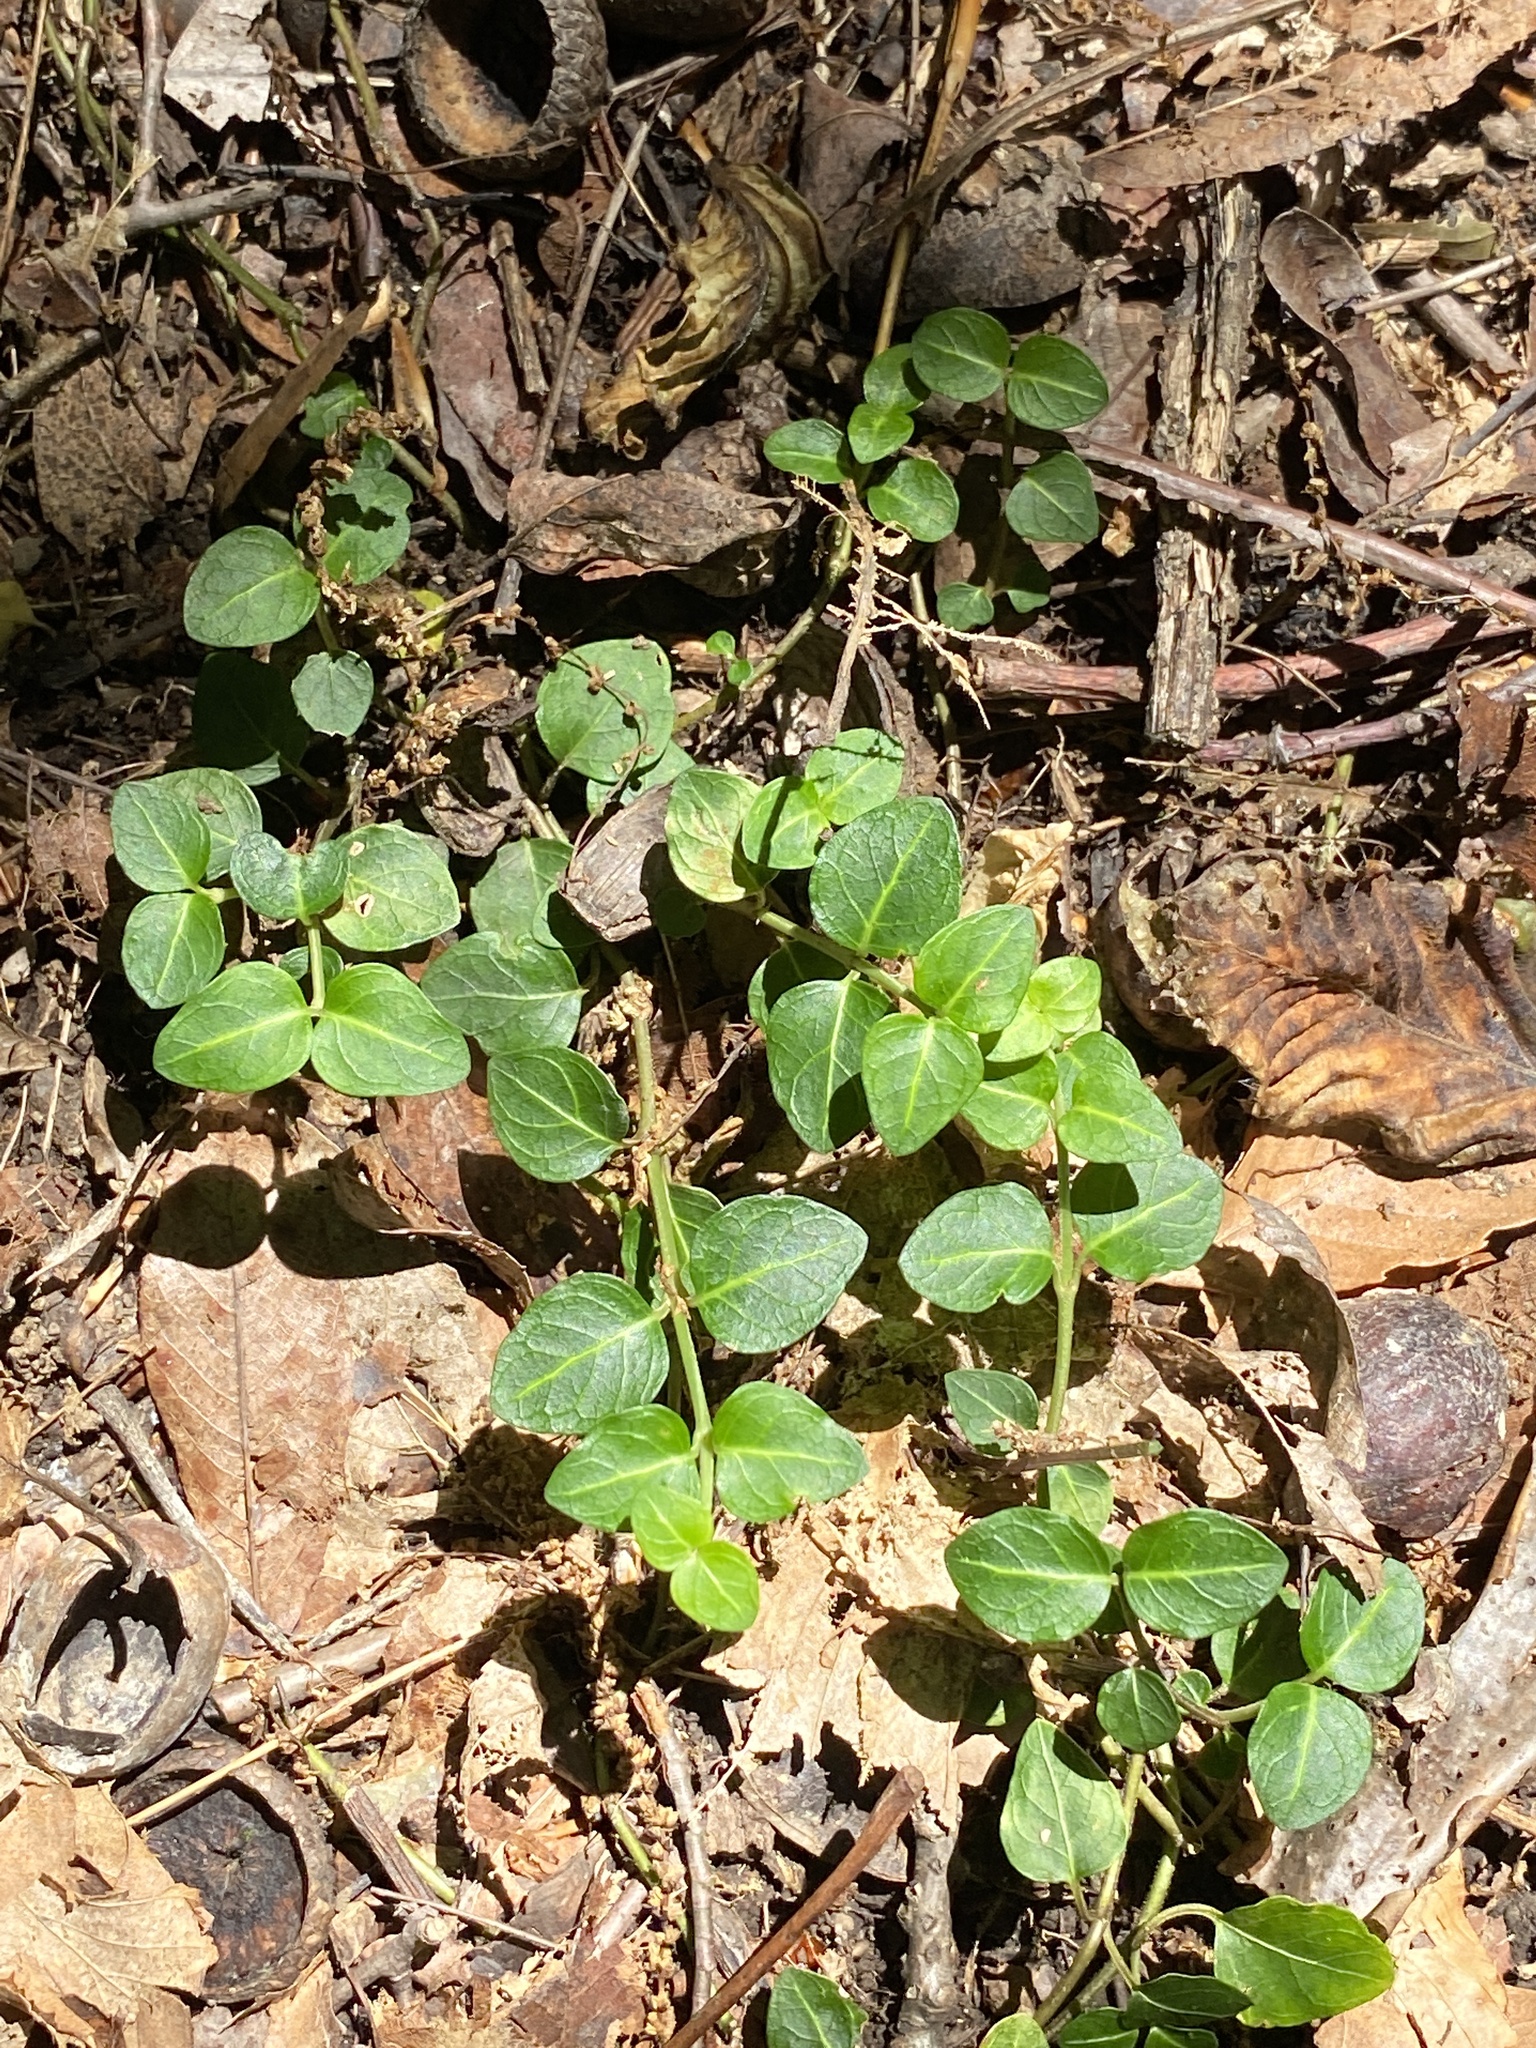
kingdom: Plantae
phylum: Tracheophyta
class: Magnoliopsida
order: Gentianales
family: Rubiaceae
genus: Mitchella
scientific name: Mitchella repens
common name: Partridge-berry
